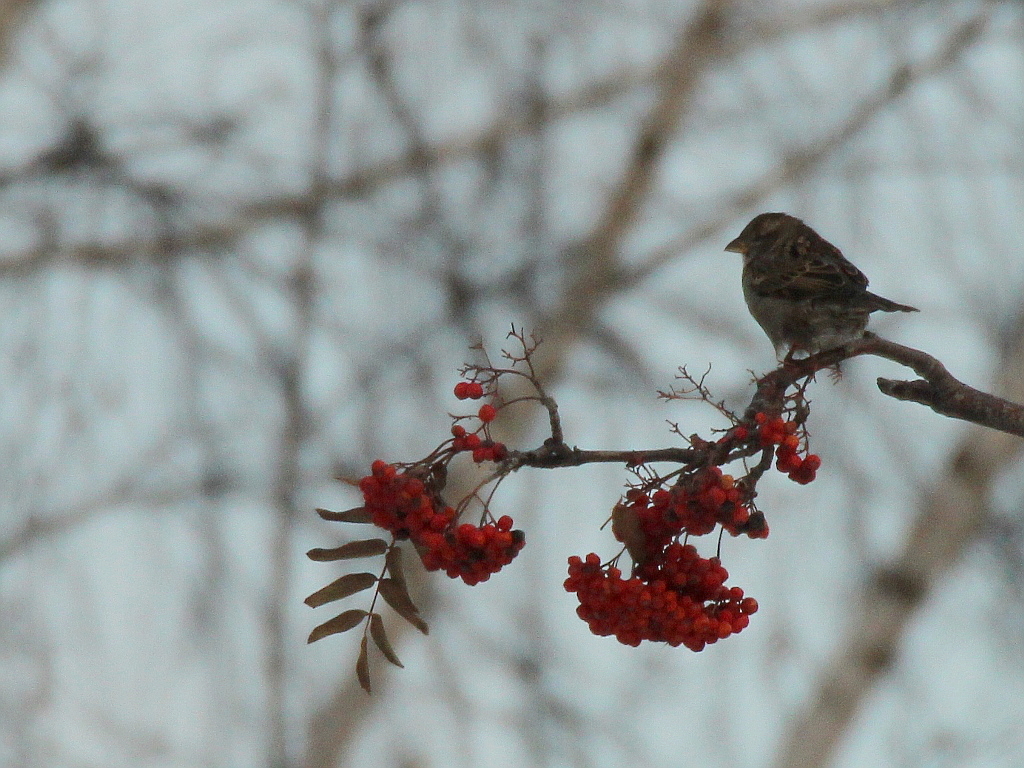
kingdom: Animalia
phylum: Chordata
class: Aves
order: Passeriformes
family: Passeridae
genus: Passer
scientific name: Passer domesticus
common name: House sparrow
